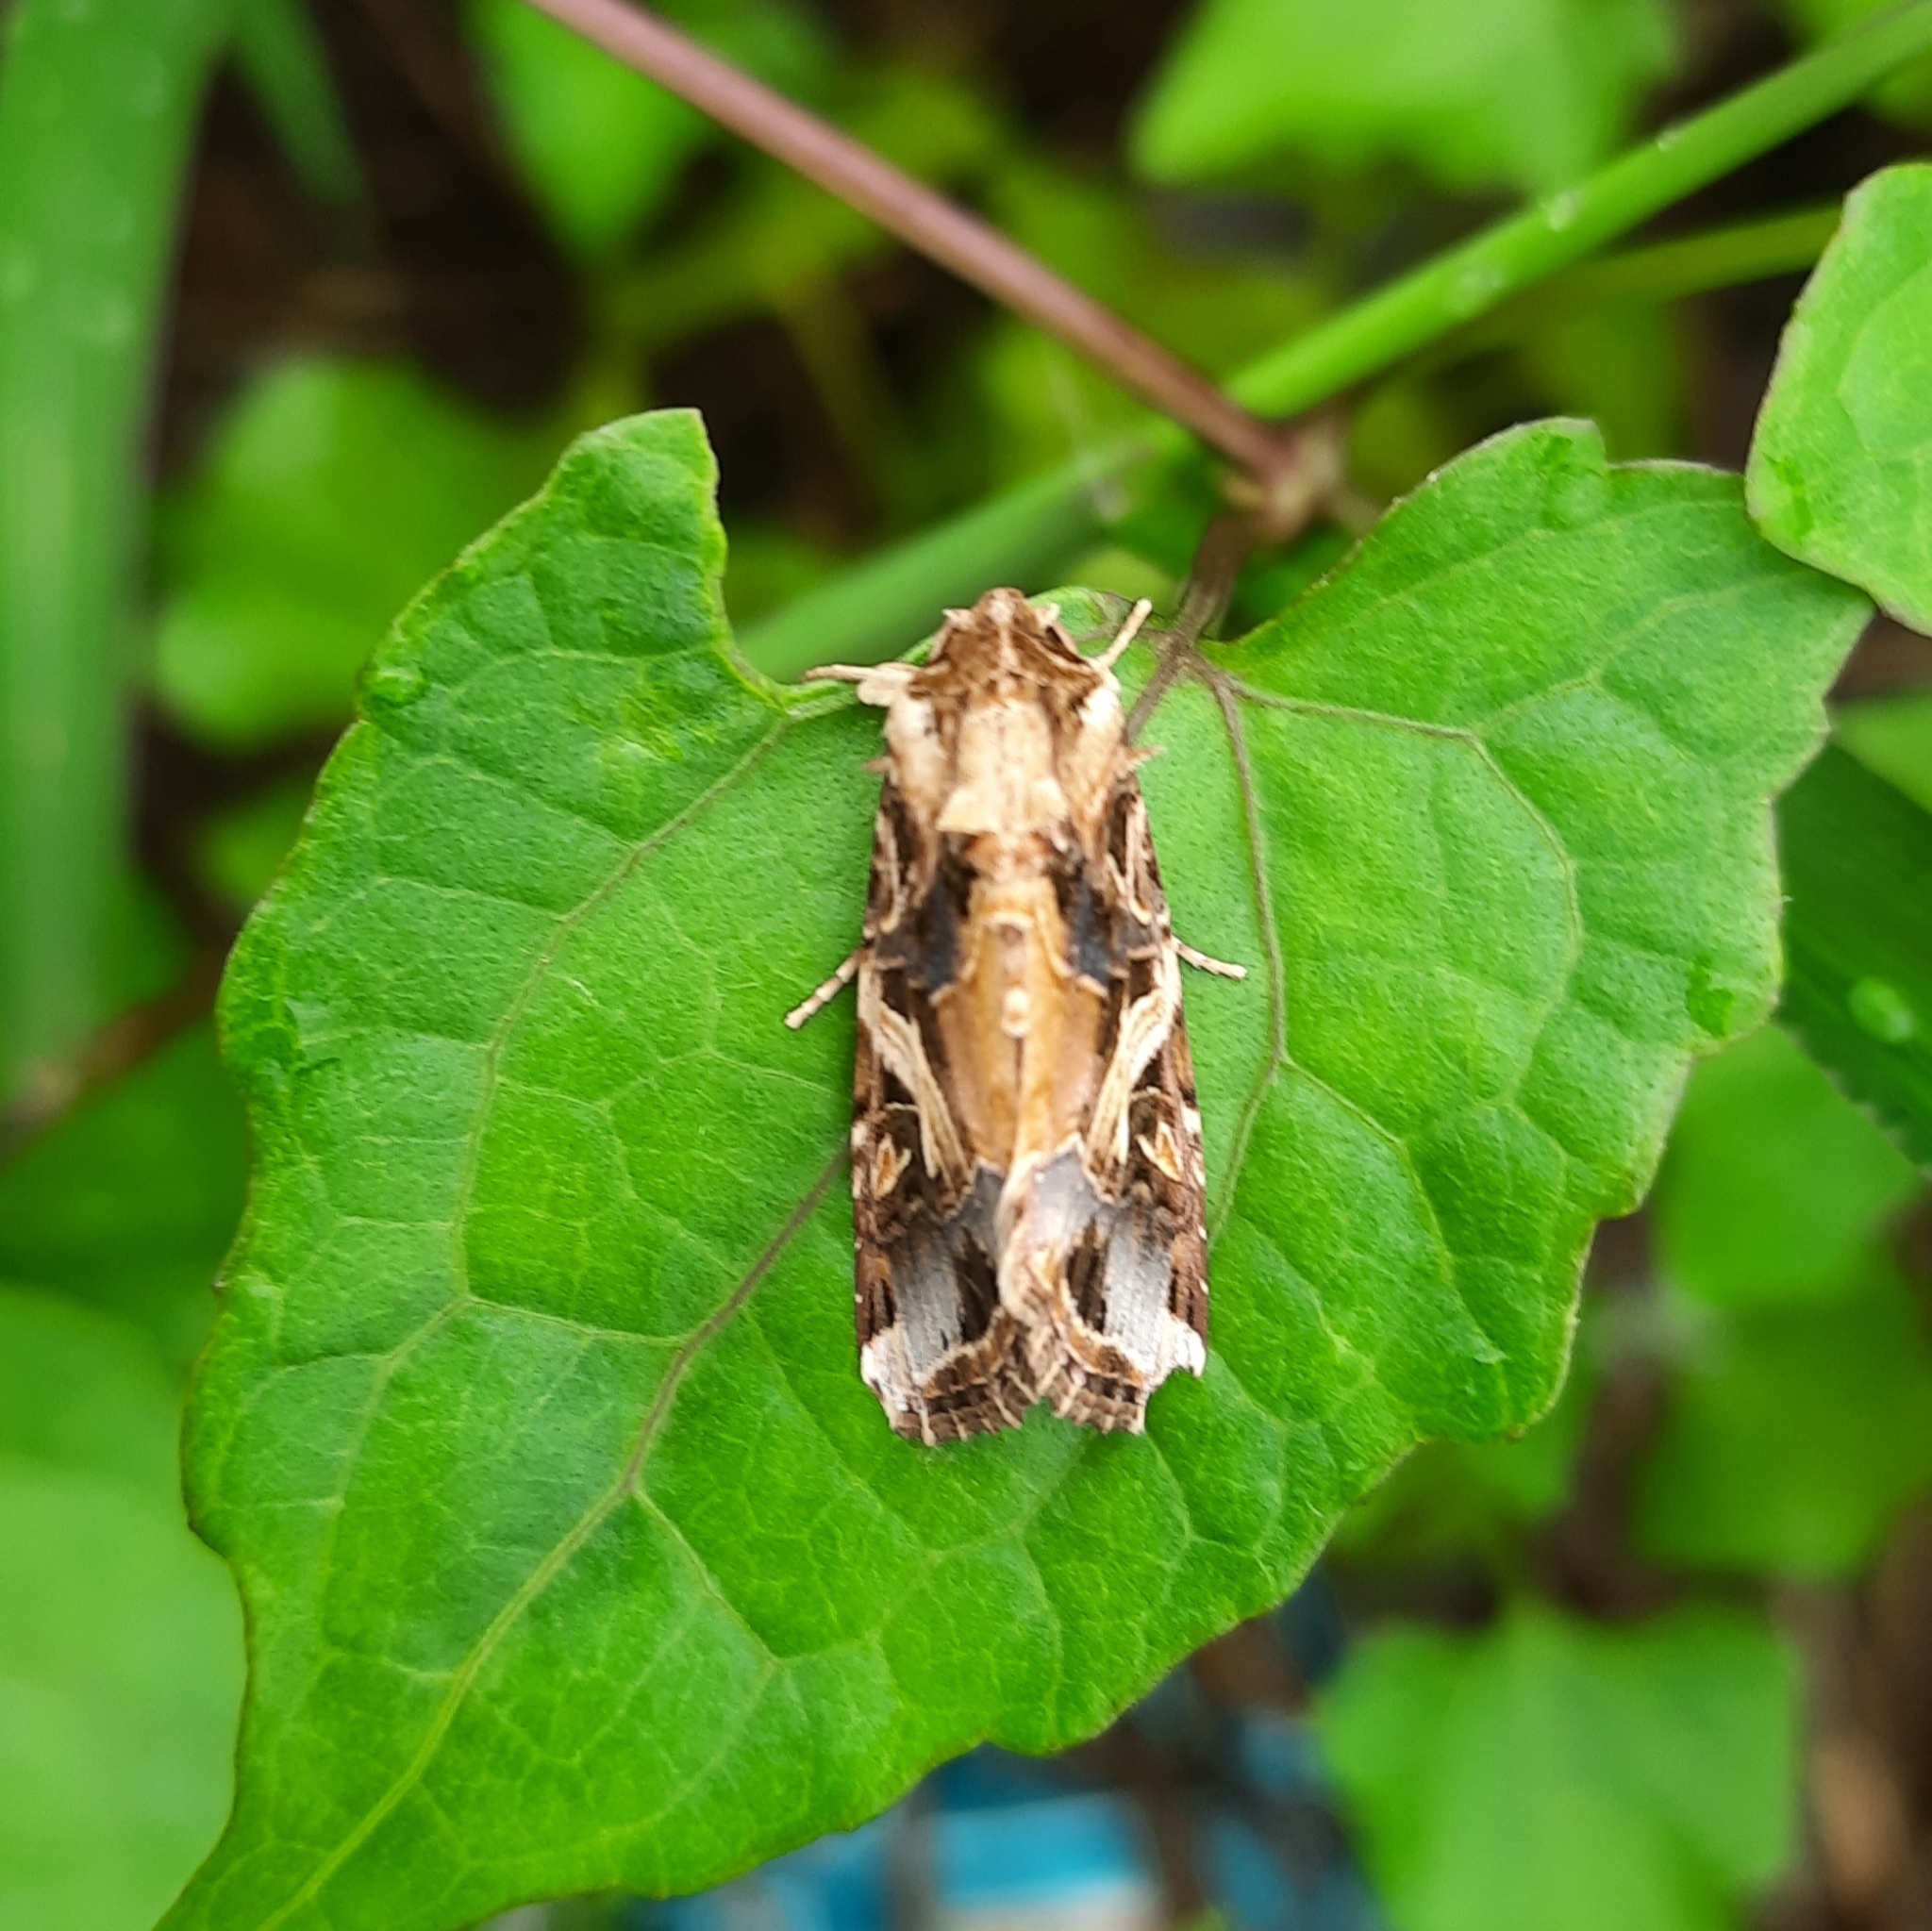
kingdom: Animalia
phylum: Arthropoda
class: Insecta
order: Lepidoptera
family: Noctuidae
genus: Spodoptera
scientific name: Spodoptera litura
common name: Asian cotton leafworm
